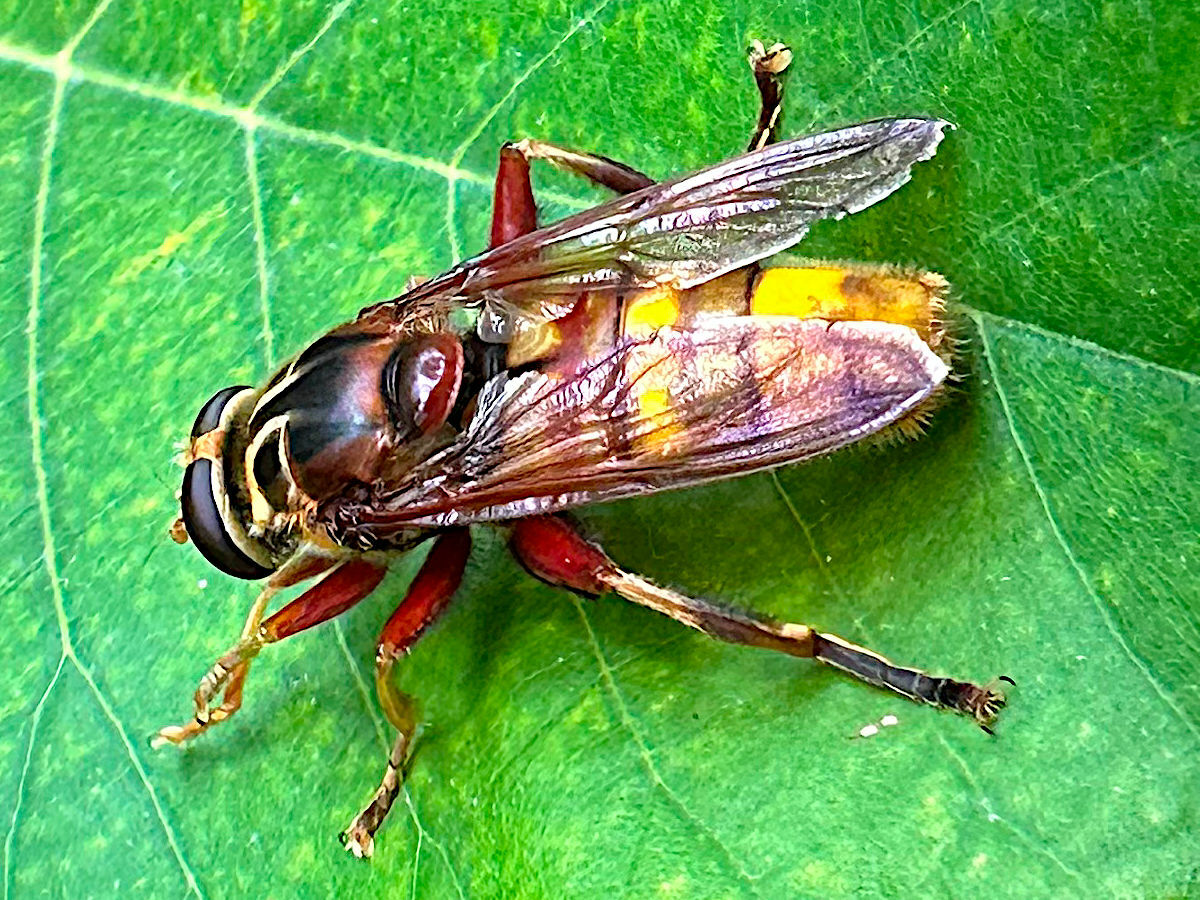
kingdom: Animalia
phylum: Arthropoda
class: Insecta
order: Diptera
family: Syrphidae
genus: Milesia
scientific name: Milesia crabroniformis
